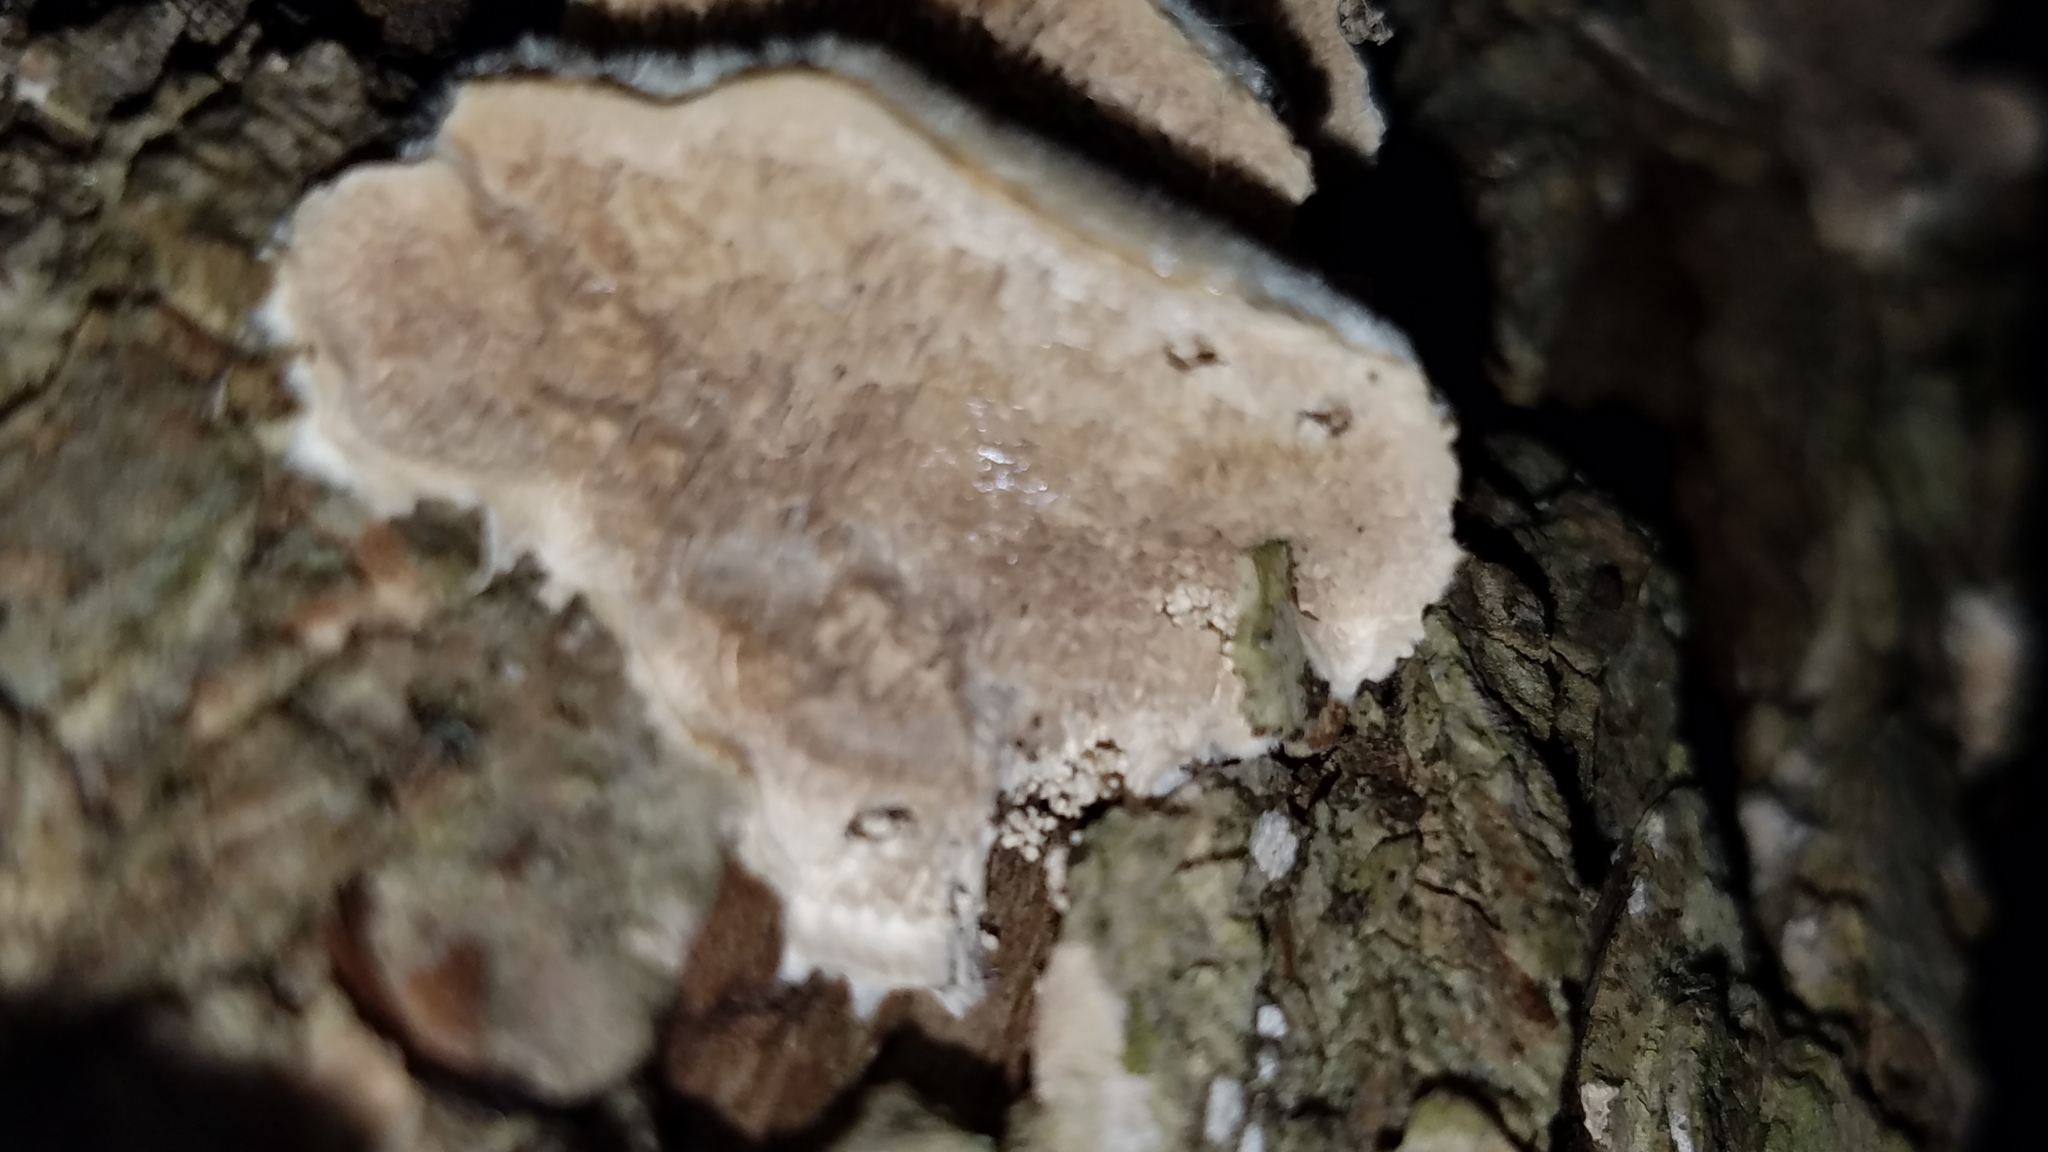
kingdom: Fungi
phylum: Basidiomycota
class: Agaricomycetes
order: Polyporales
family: Cerrenaceae
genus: Cerrena
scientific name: Cerrena unicolor
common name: Mossy maze polypore
